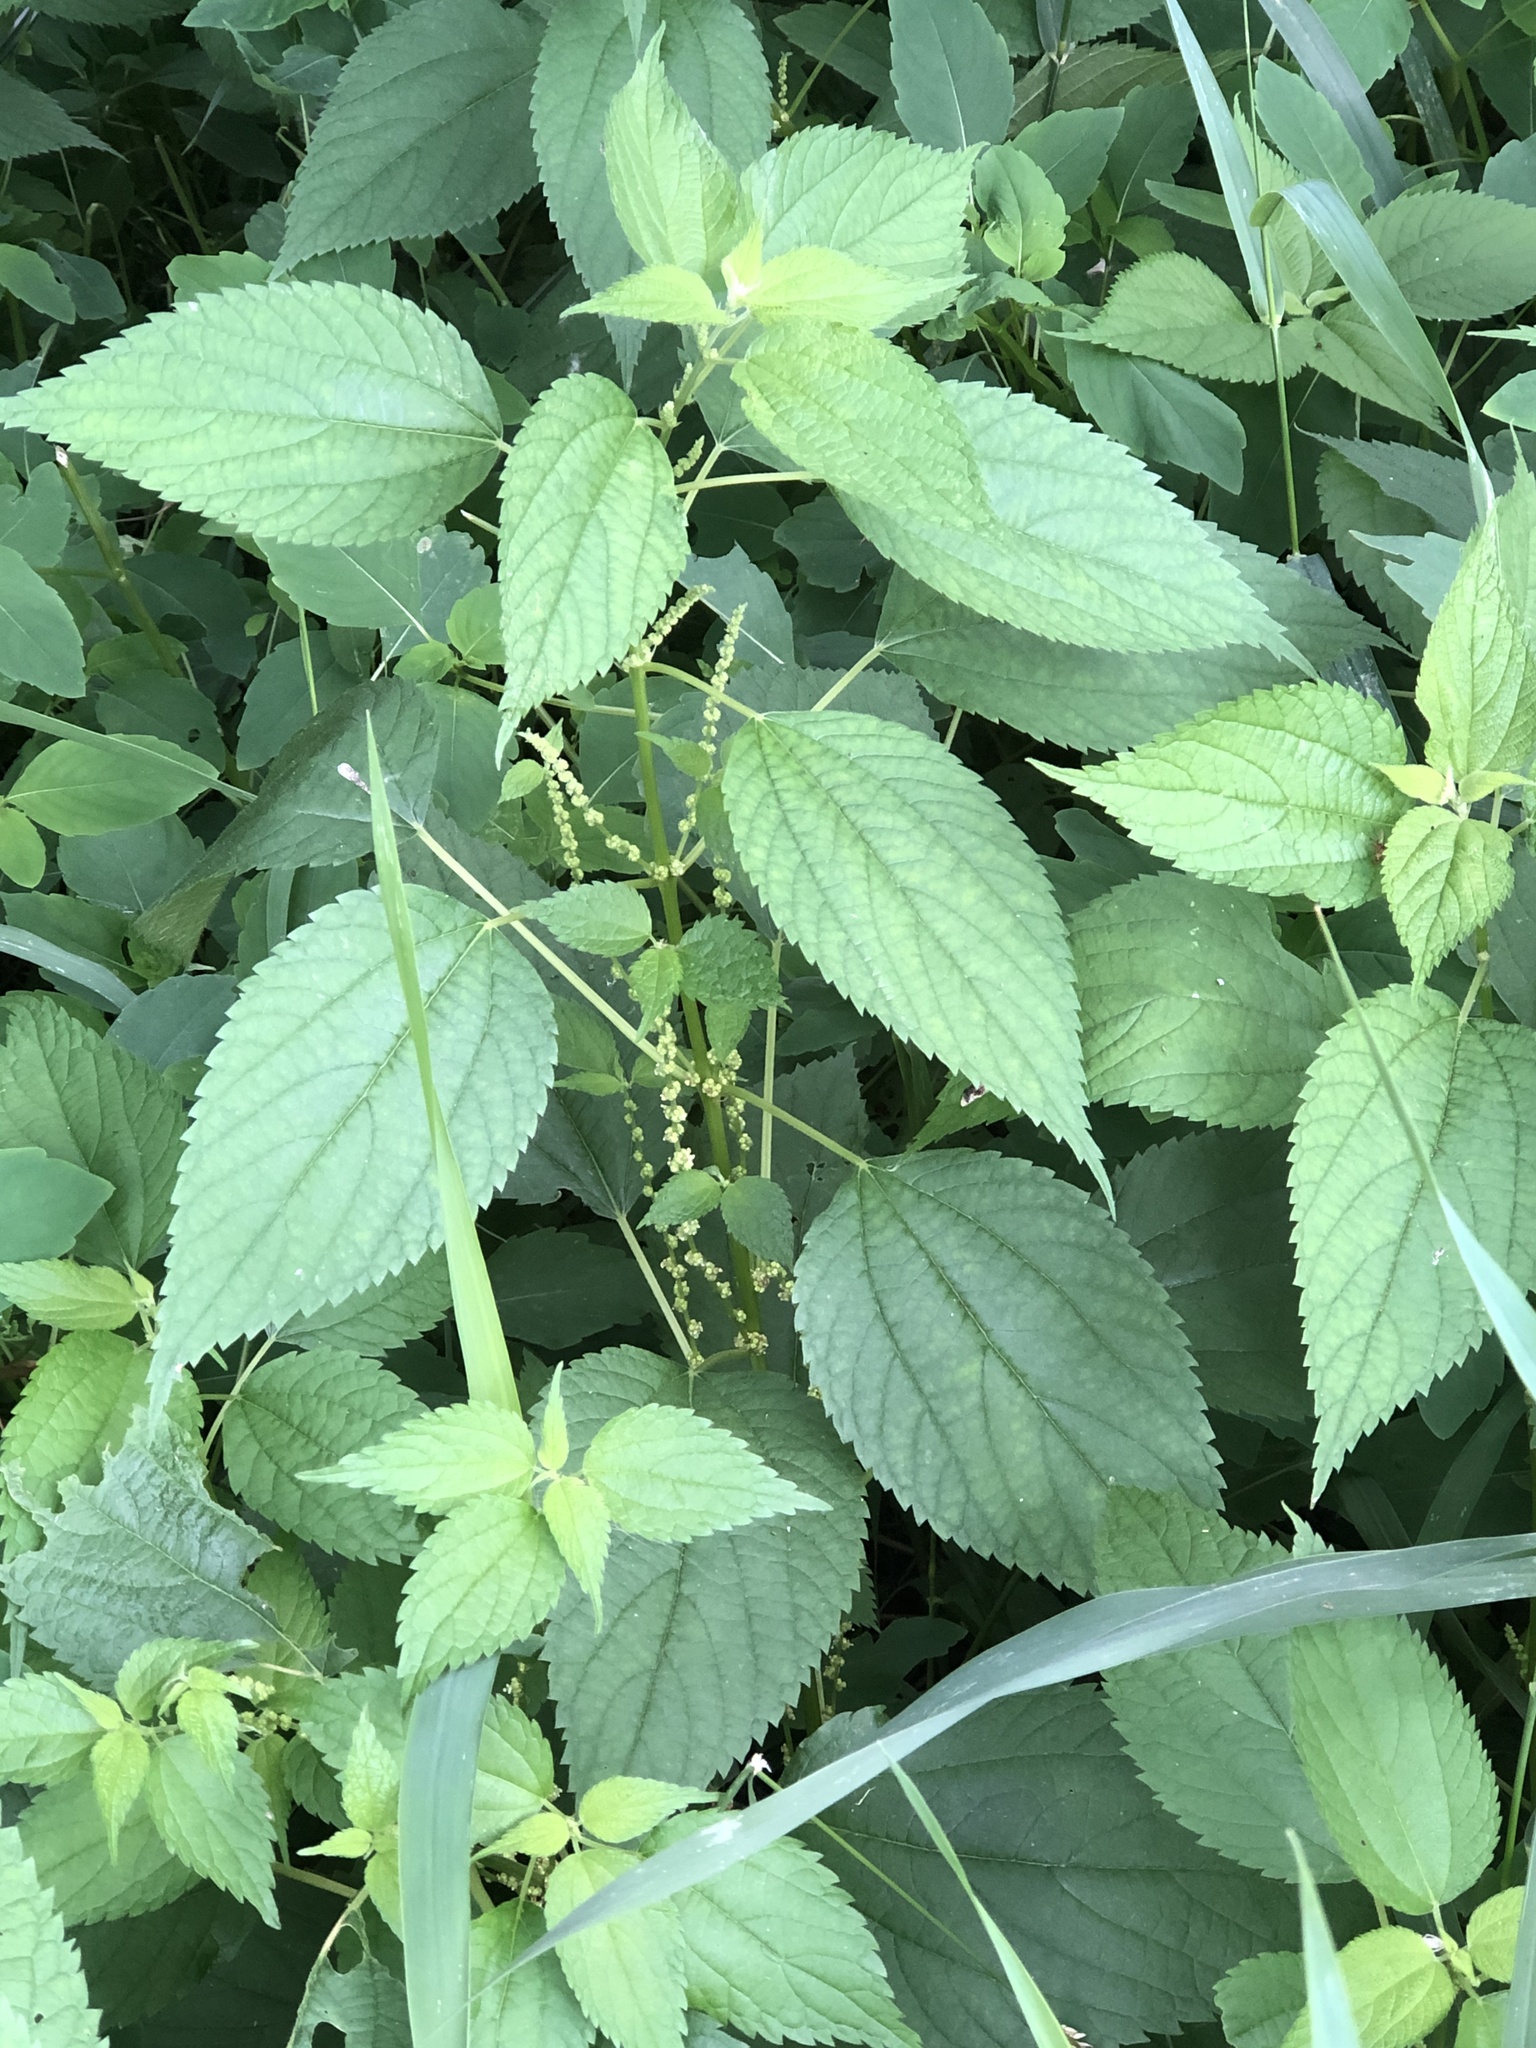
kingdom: Plantae
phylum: Tracheophyta
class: Magnoliopsida
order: Rosales
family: Urticaceae
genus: Boehmeria
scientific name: Boehmeria cylindrica
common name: Bog-hemp
